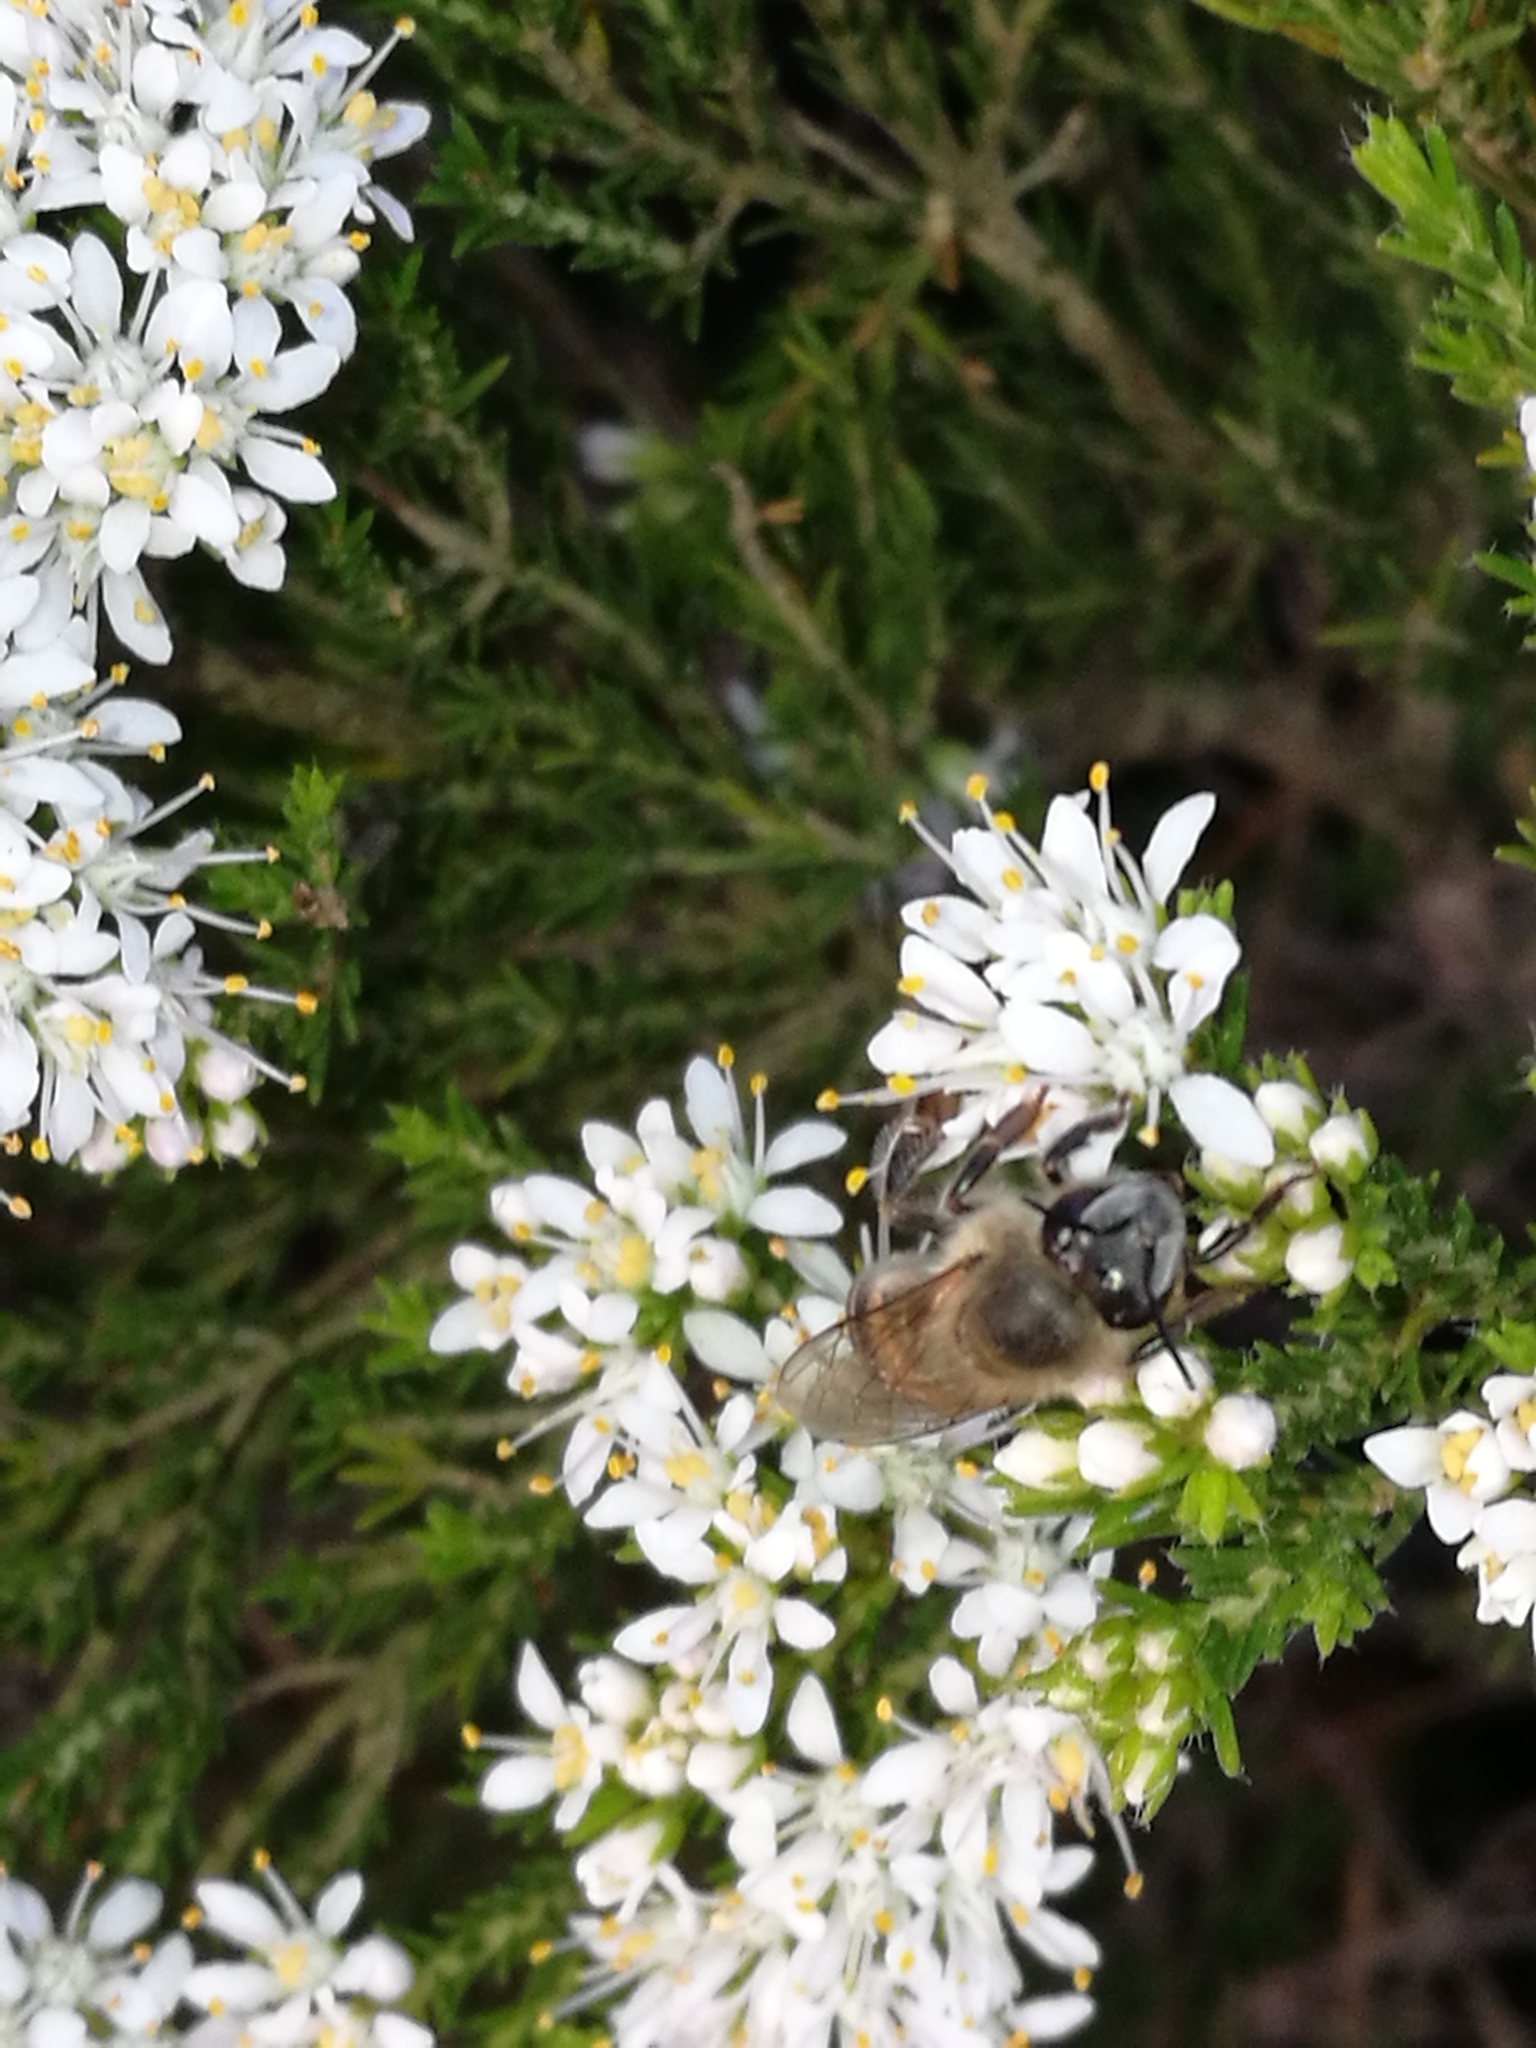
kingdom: Plantae
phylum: Tracheophyta
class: Magnoliopsida
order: Sapindales
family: Rutaceae
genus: Agathosma
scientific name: Agathosma capensis
